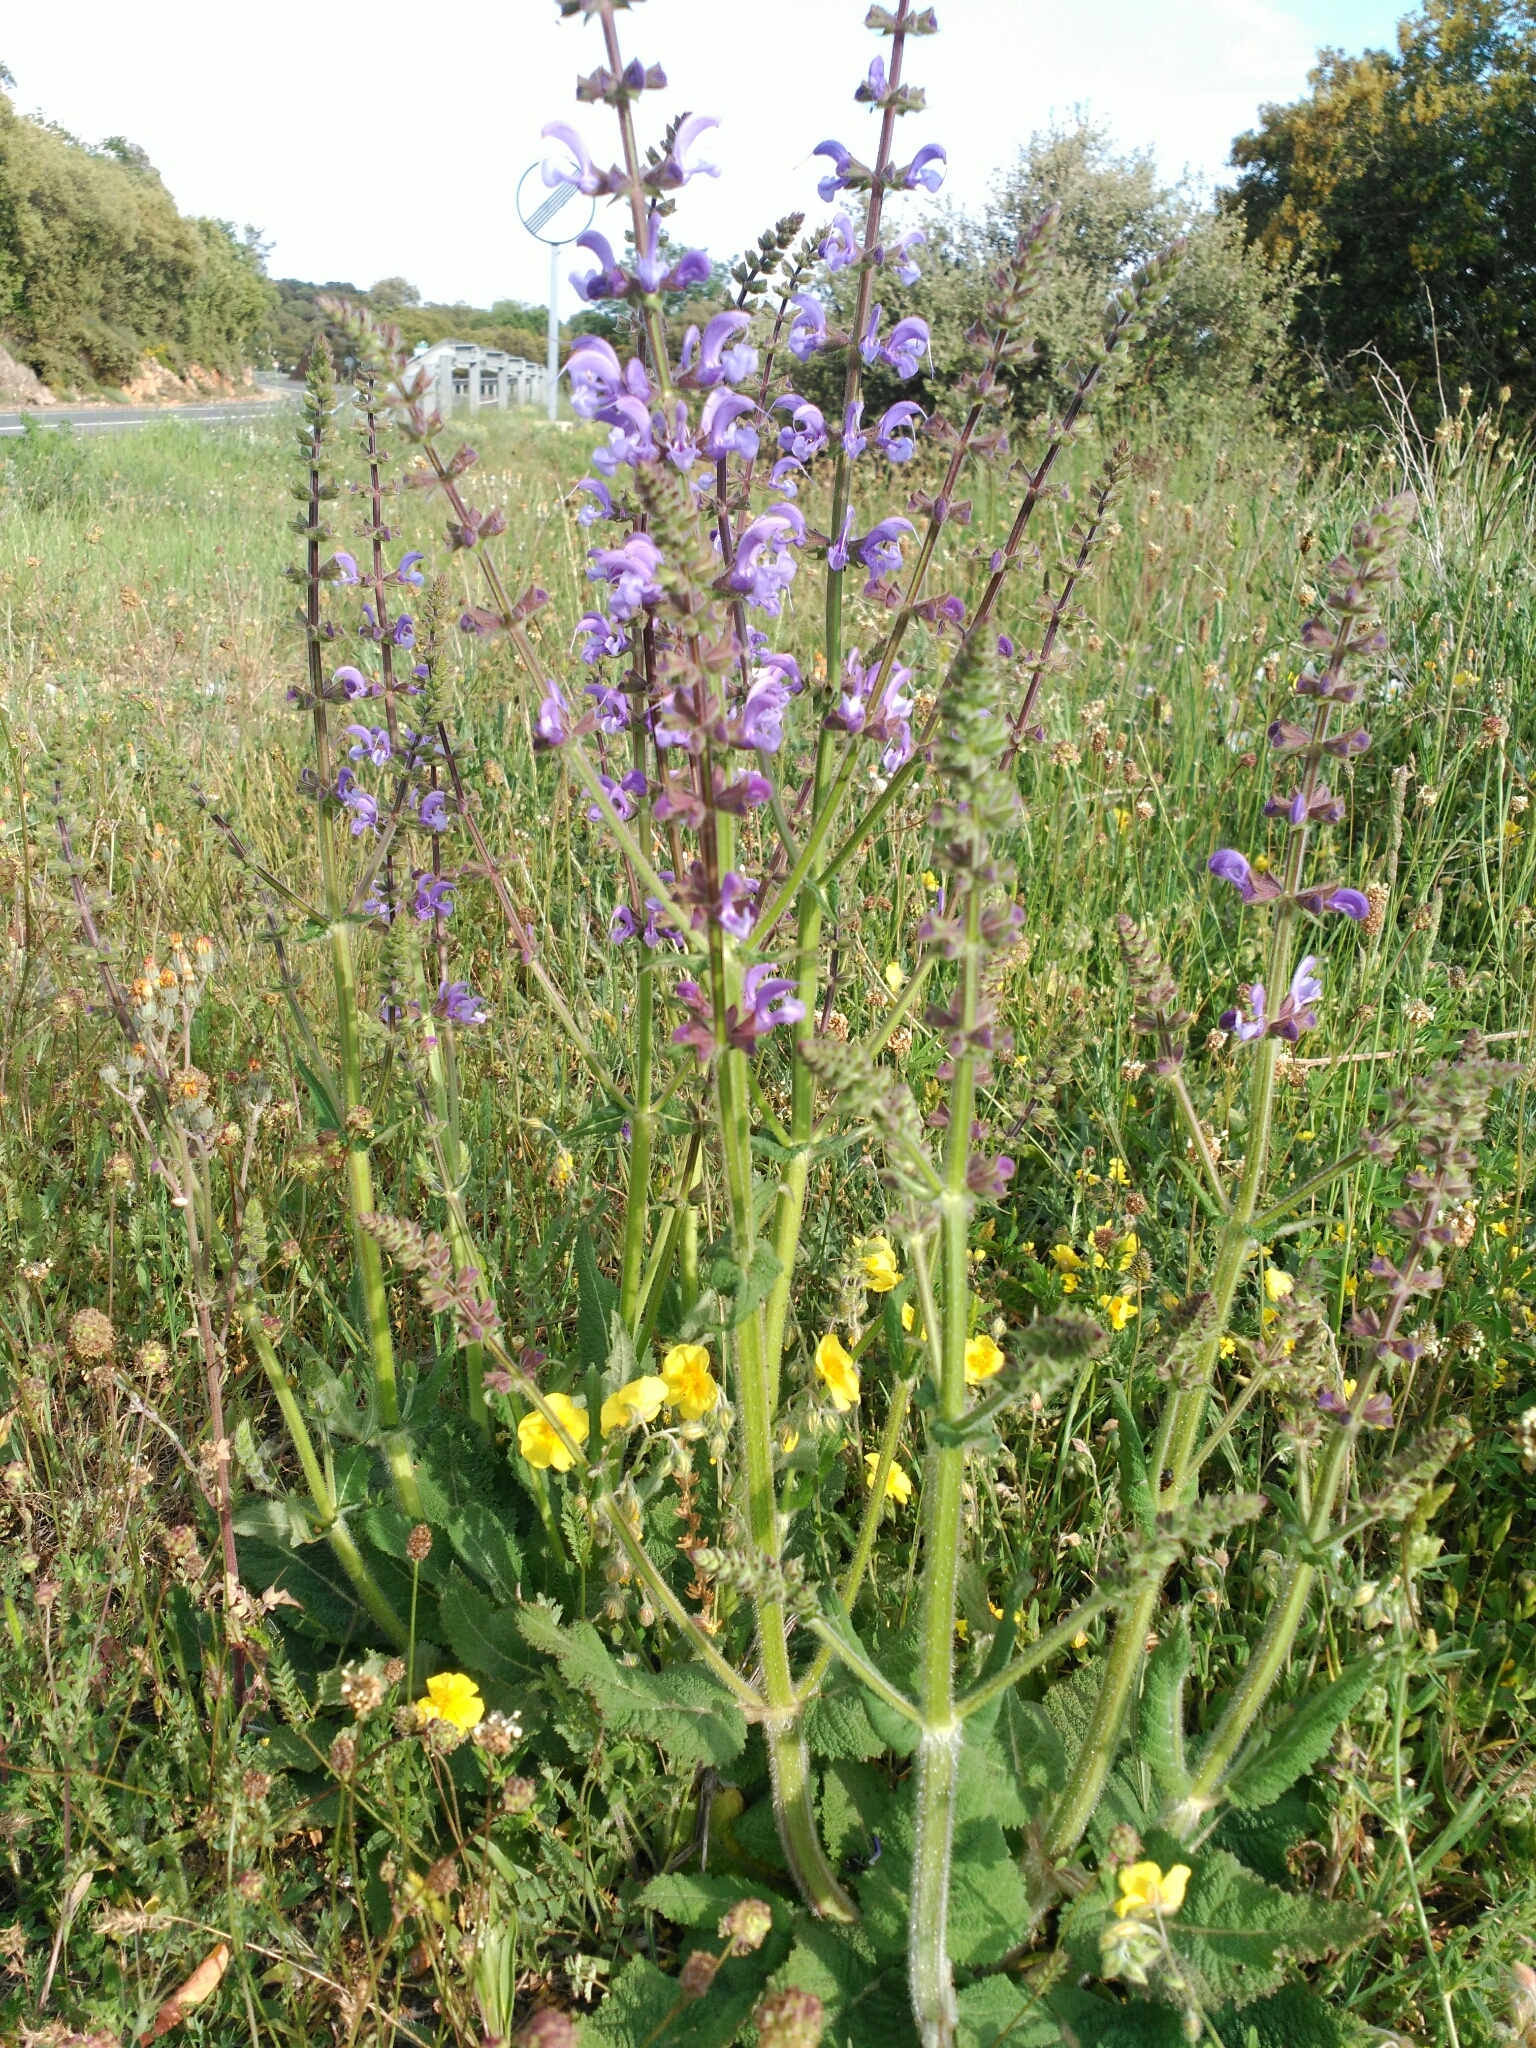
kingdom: Plantae
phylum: Tracheophyta
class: Magnoliopsida
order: Lamiales
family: Lamiaceae
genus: Salvia
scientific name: Salvia pratensis
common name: Meadow sage
